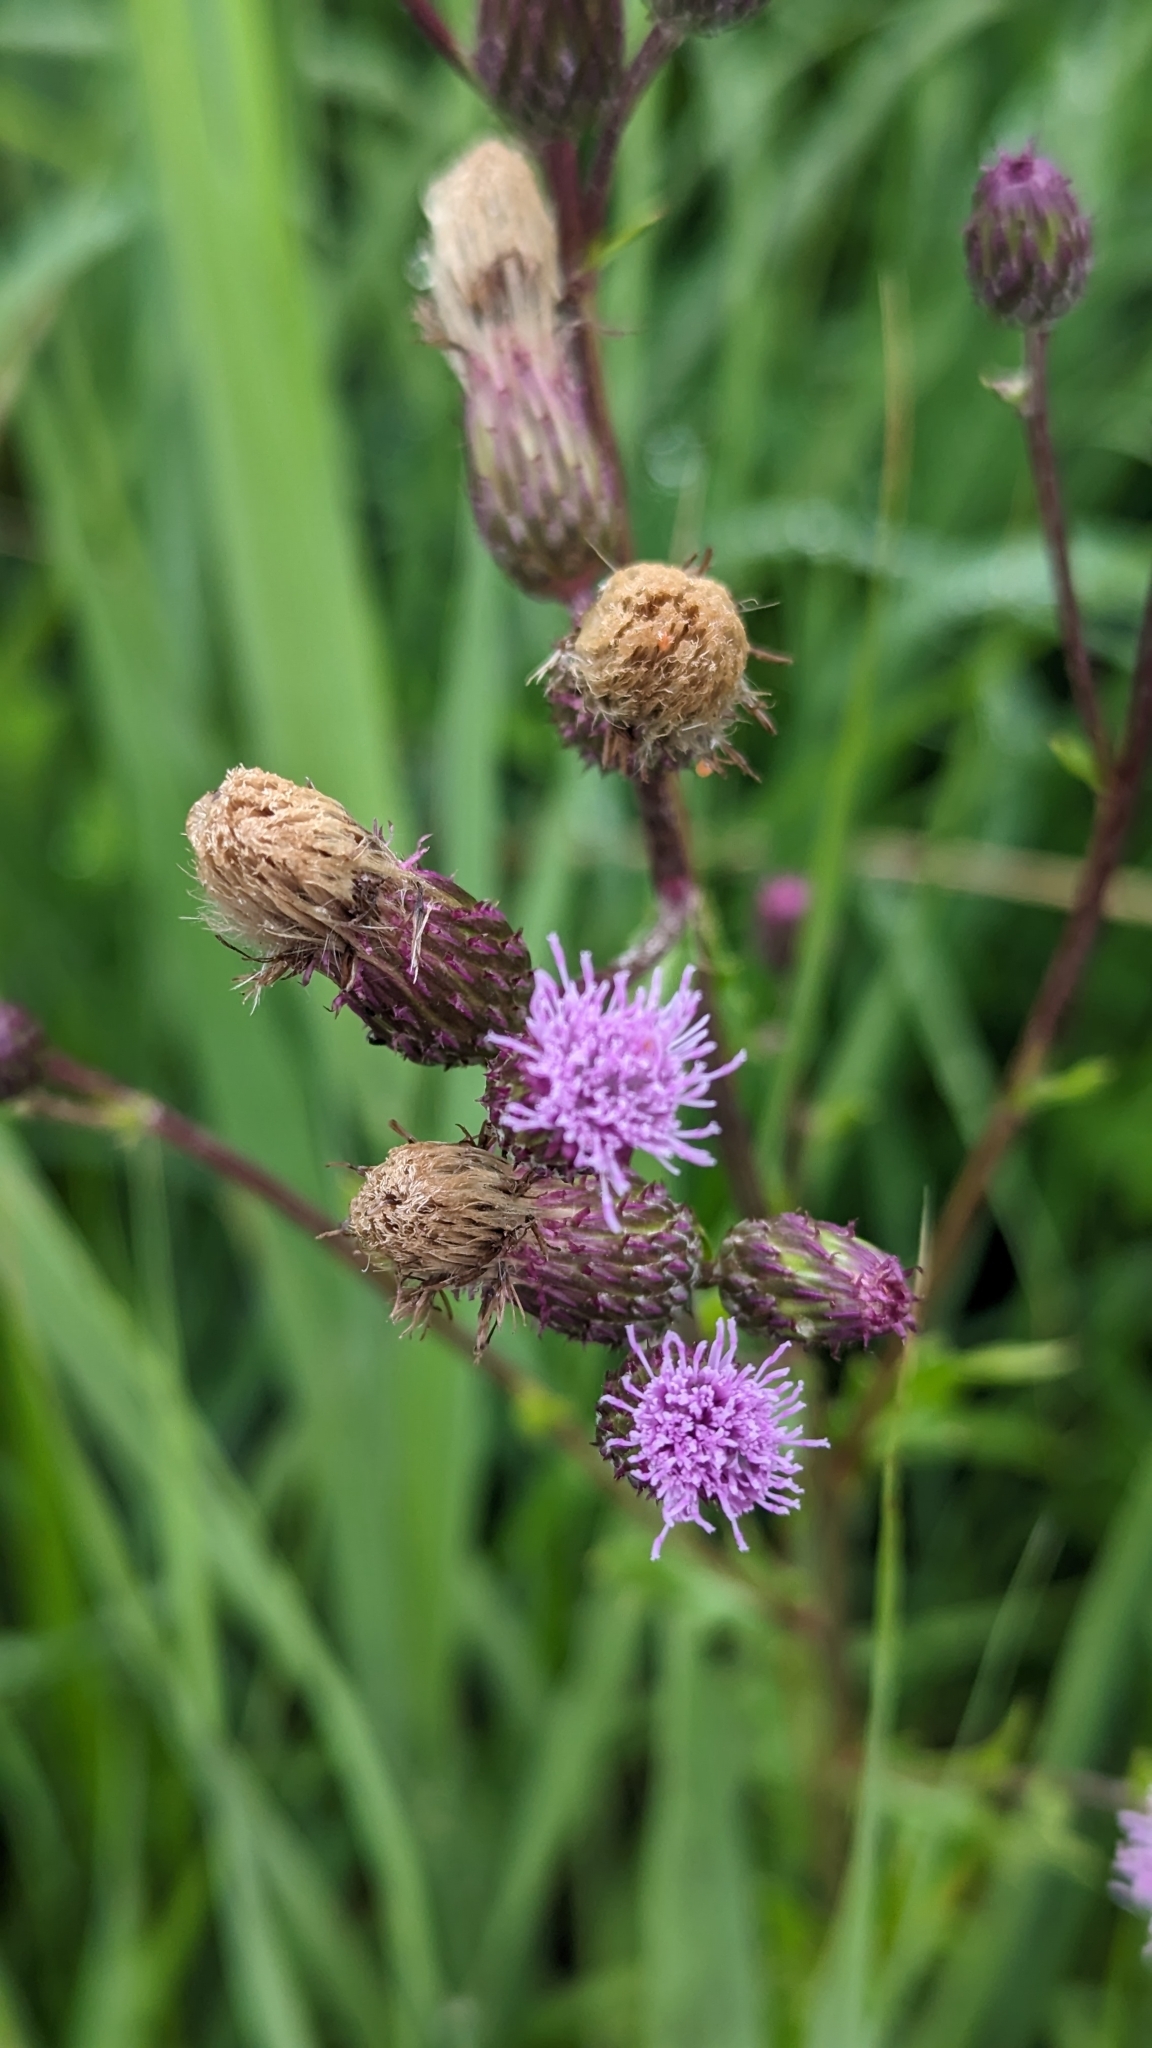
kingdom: Plantae
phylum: Tracheophyta
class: Magnoliopsida
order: Asterales
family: Asteraceae
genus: Cirsium
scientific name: Cirsium arvense
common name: Creeping thistle
